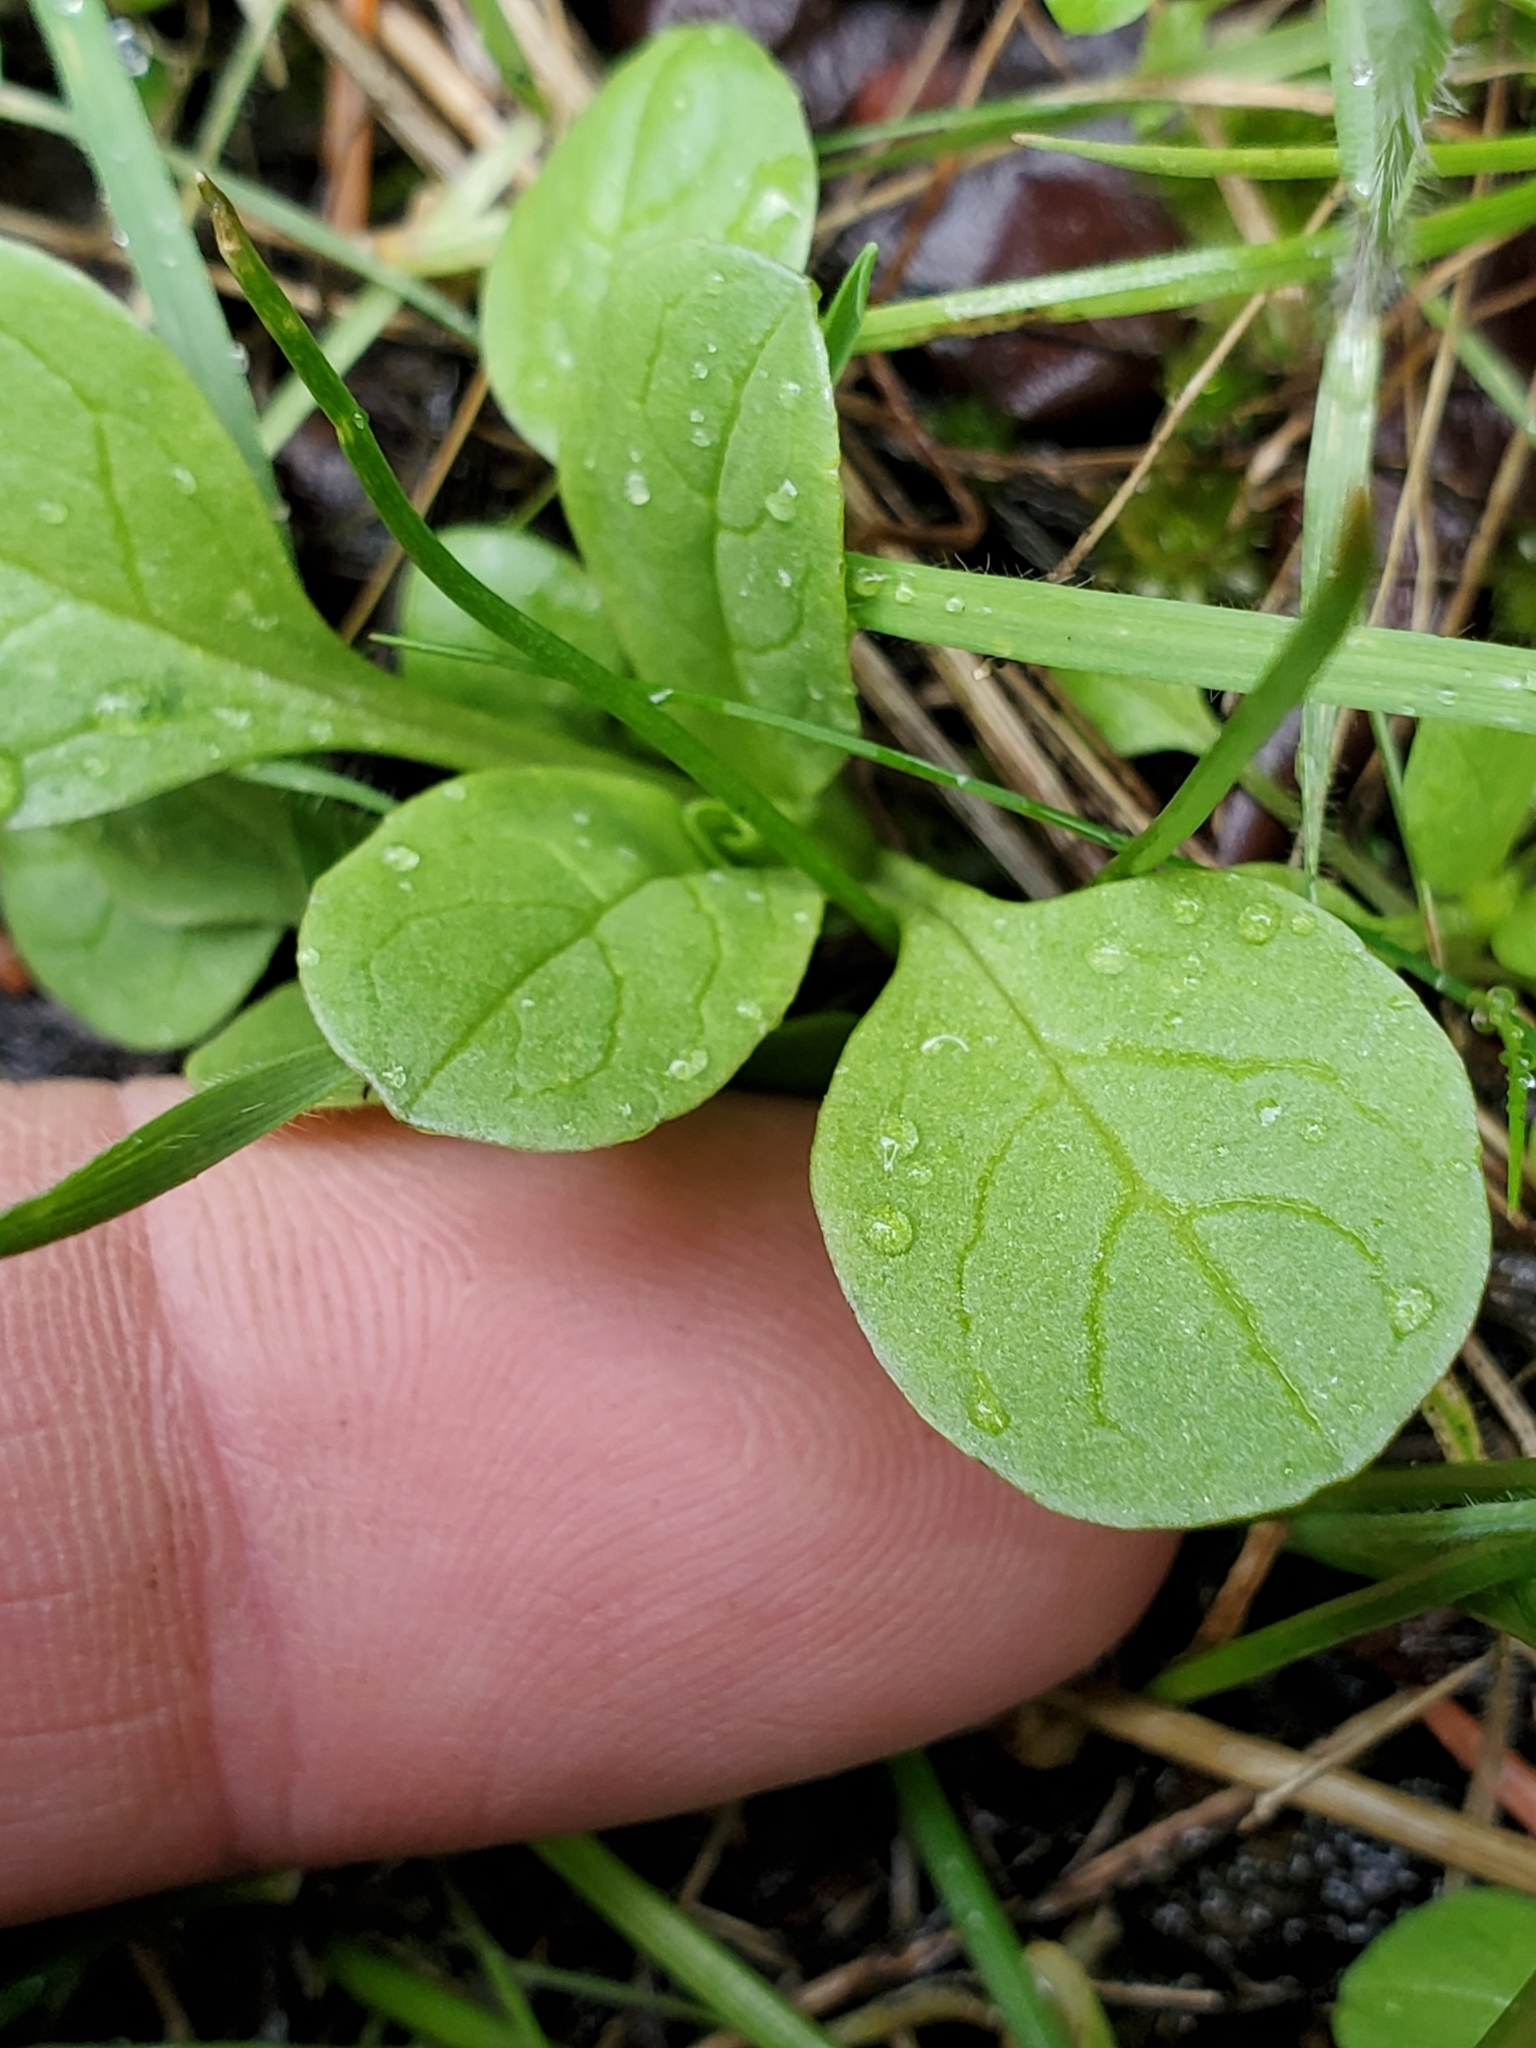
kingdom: Plantae
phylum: Tracheophyta
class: Magnoliopsida
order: Dipsacales
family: Caprifoliaceae
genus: Plectritis
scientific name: Plectritis congesta
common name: Pink plectritis
